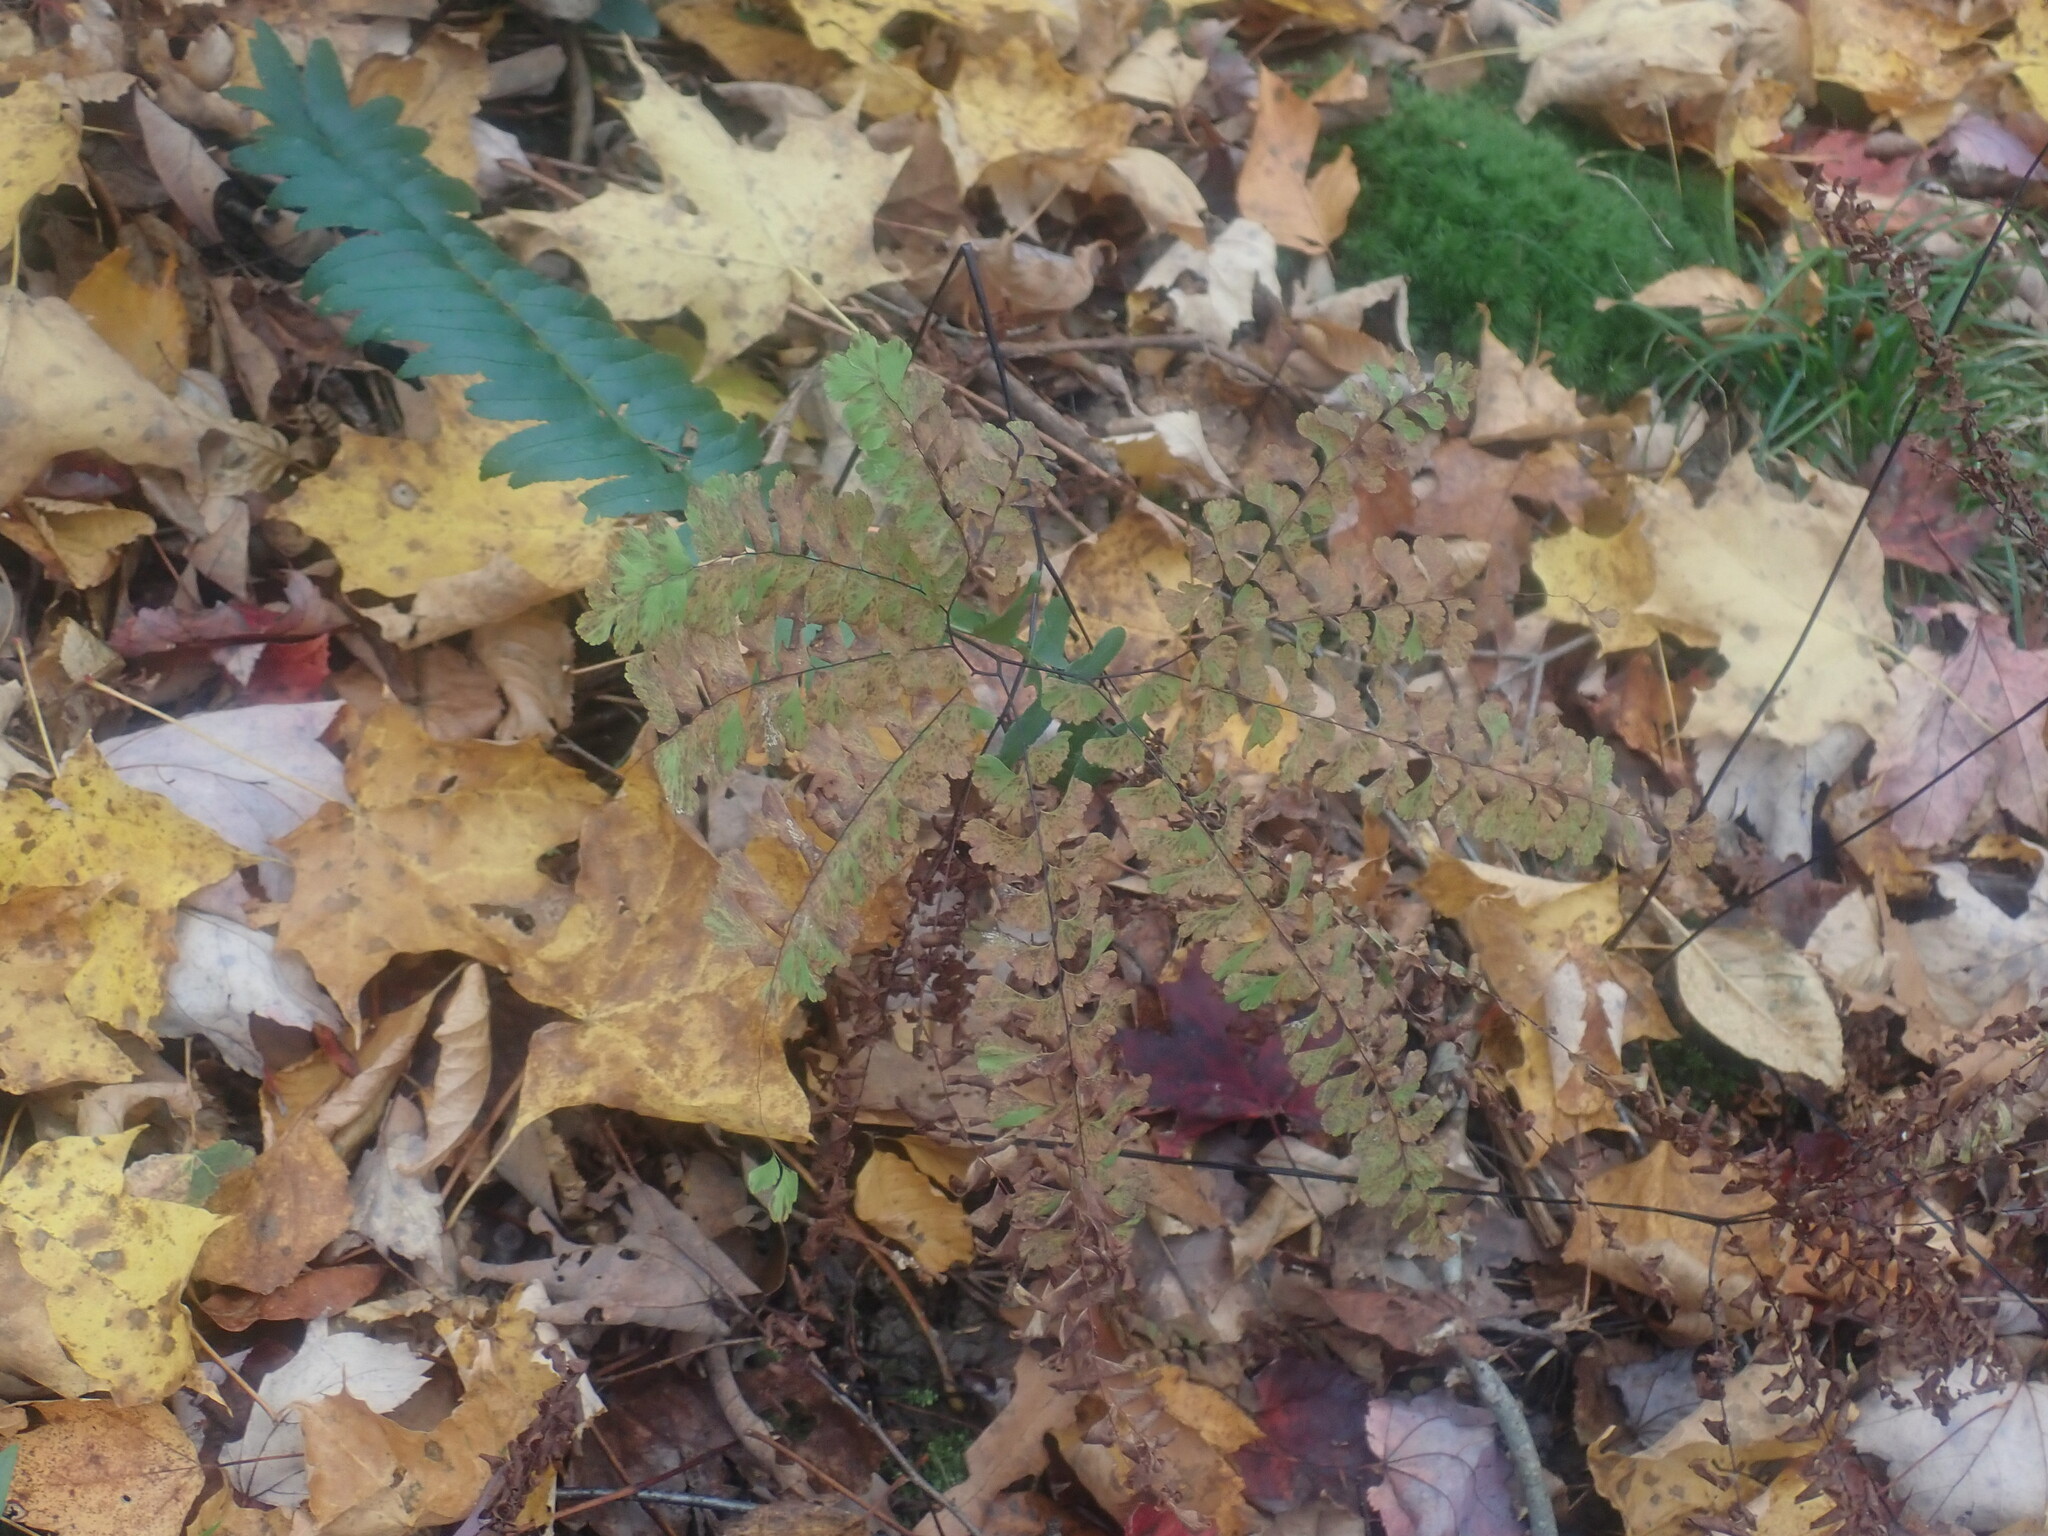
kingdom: Plantae
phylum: Tracheophyta
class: Polypodiopsida
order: Polypodiales
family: Pteridaceae
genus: Adiantum
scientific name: Adiantum pedatum
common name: Five-finger fern
